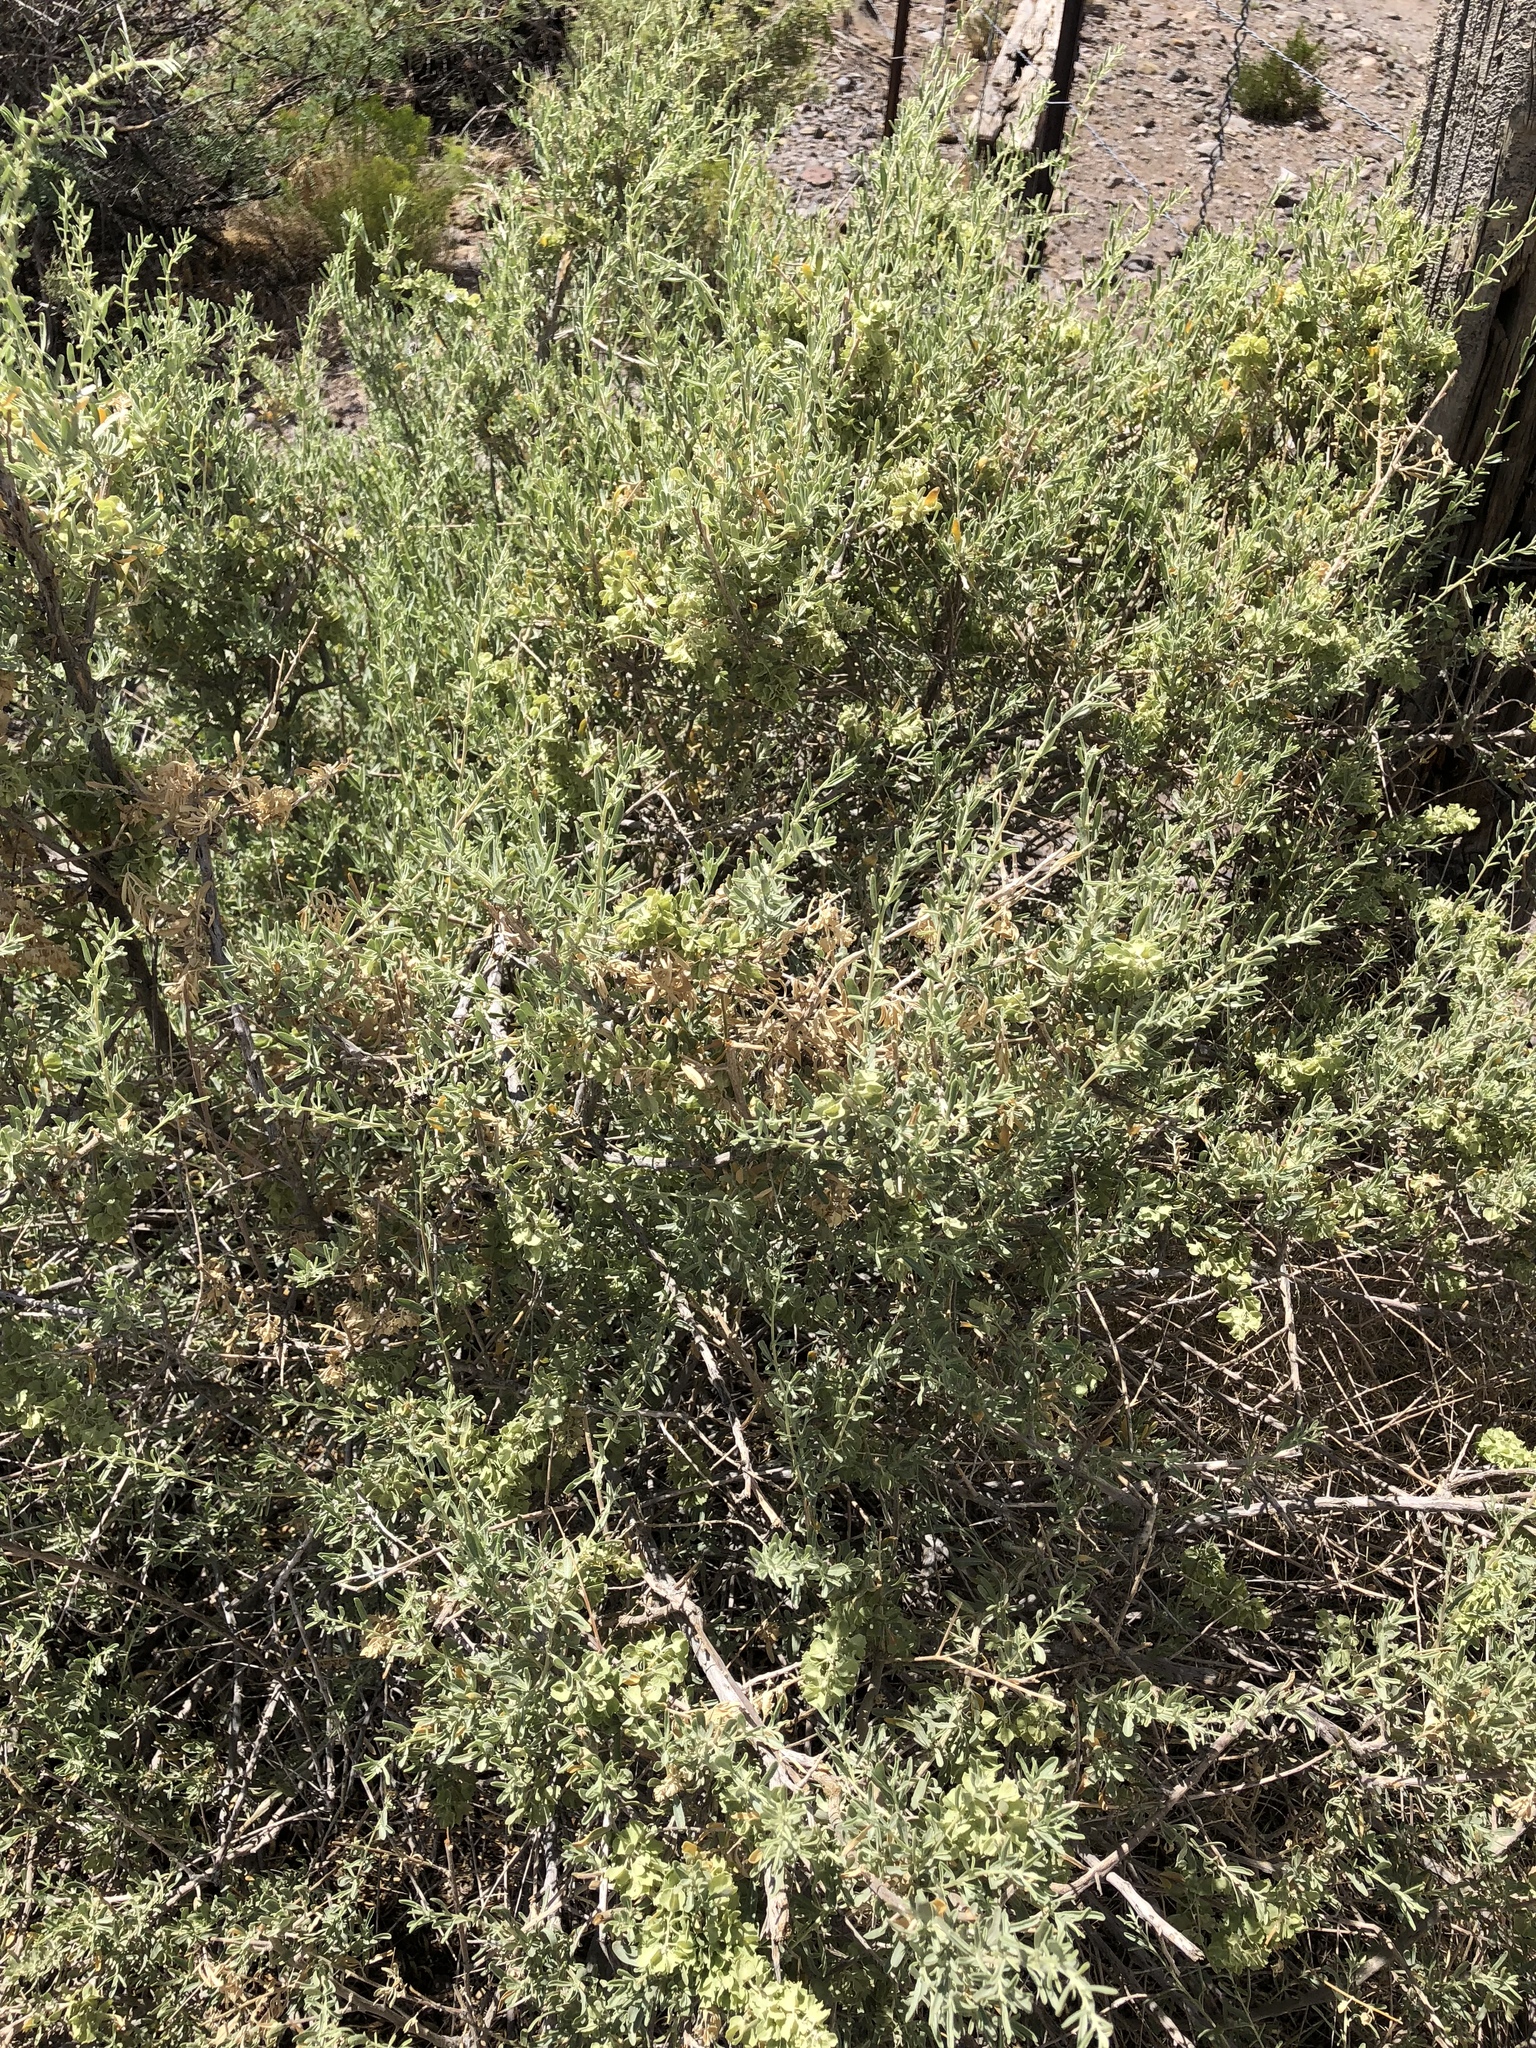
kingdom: Plantae
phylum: Tracheophyta
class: Magnoliopsida
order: Caryophyllales
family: Amaranthaceae
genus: Atriplex
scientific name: Atriplex canescens
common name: Four-wing saltbush
